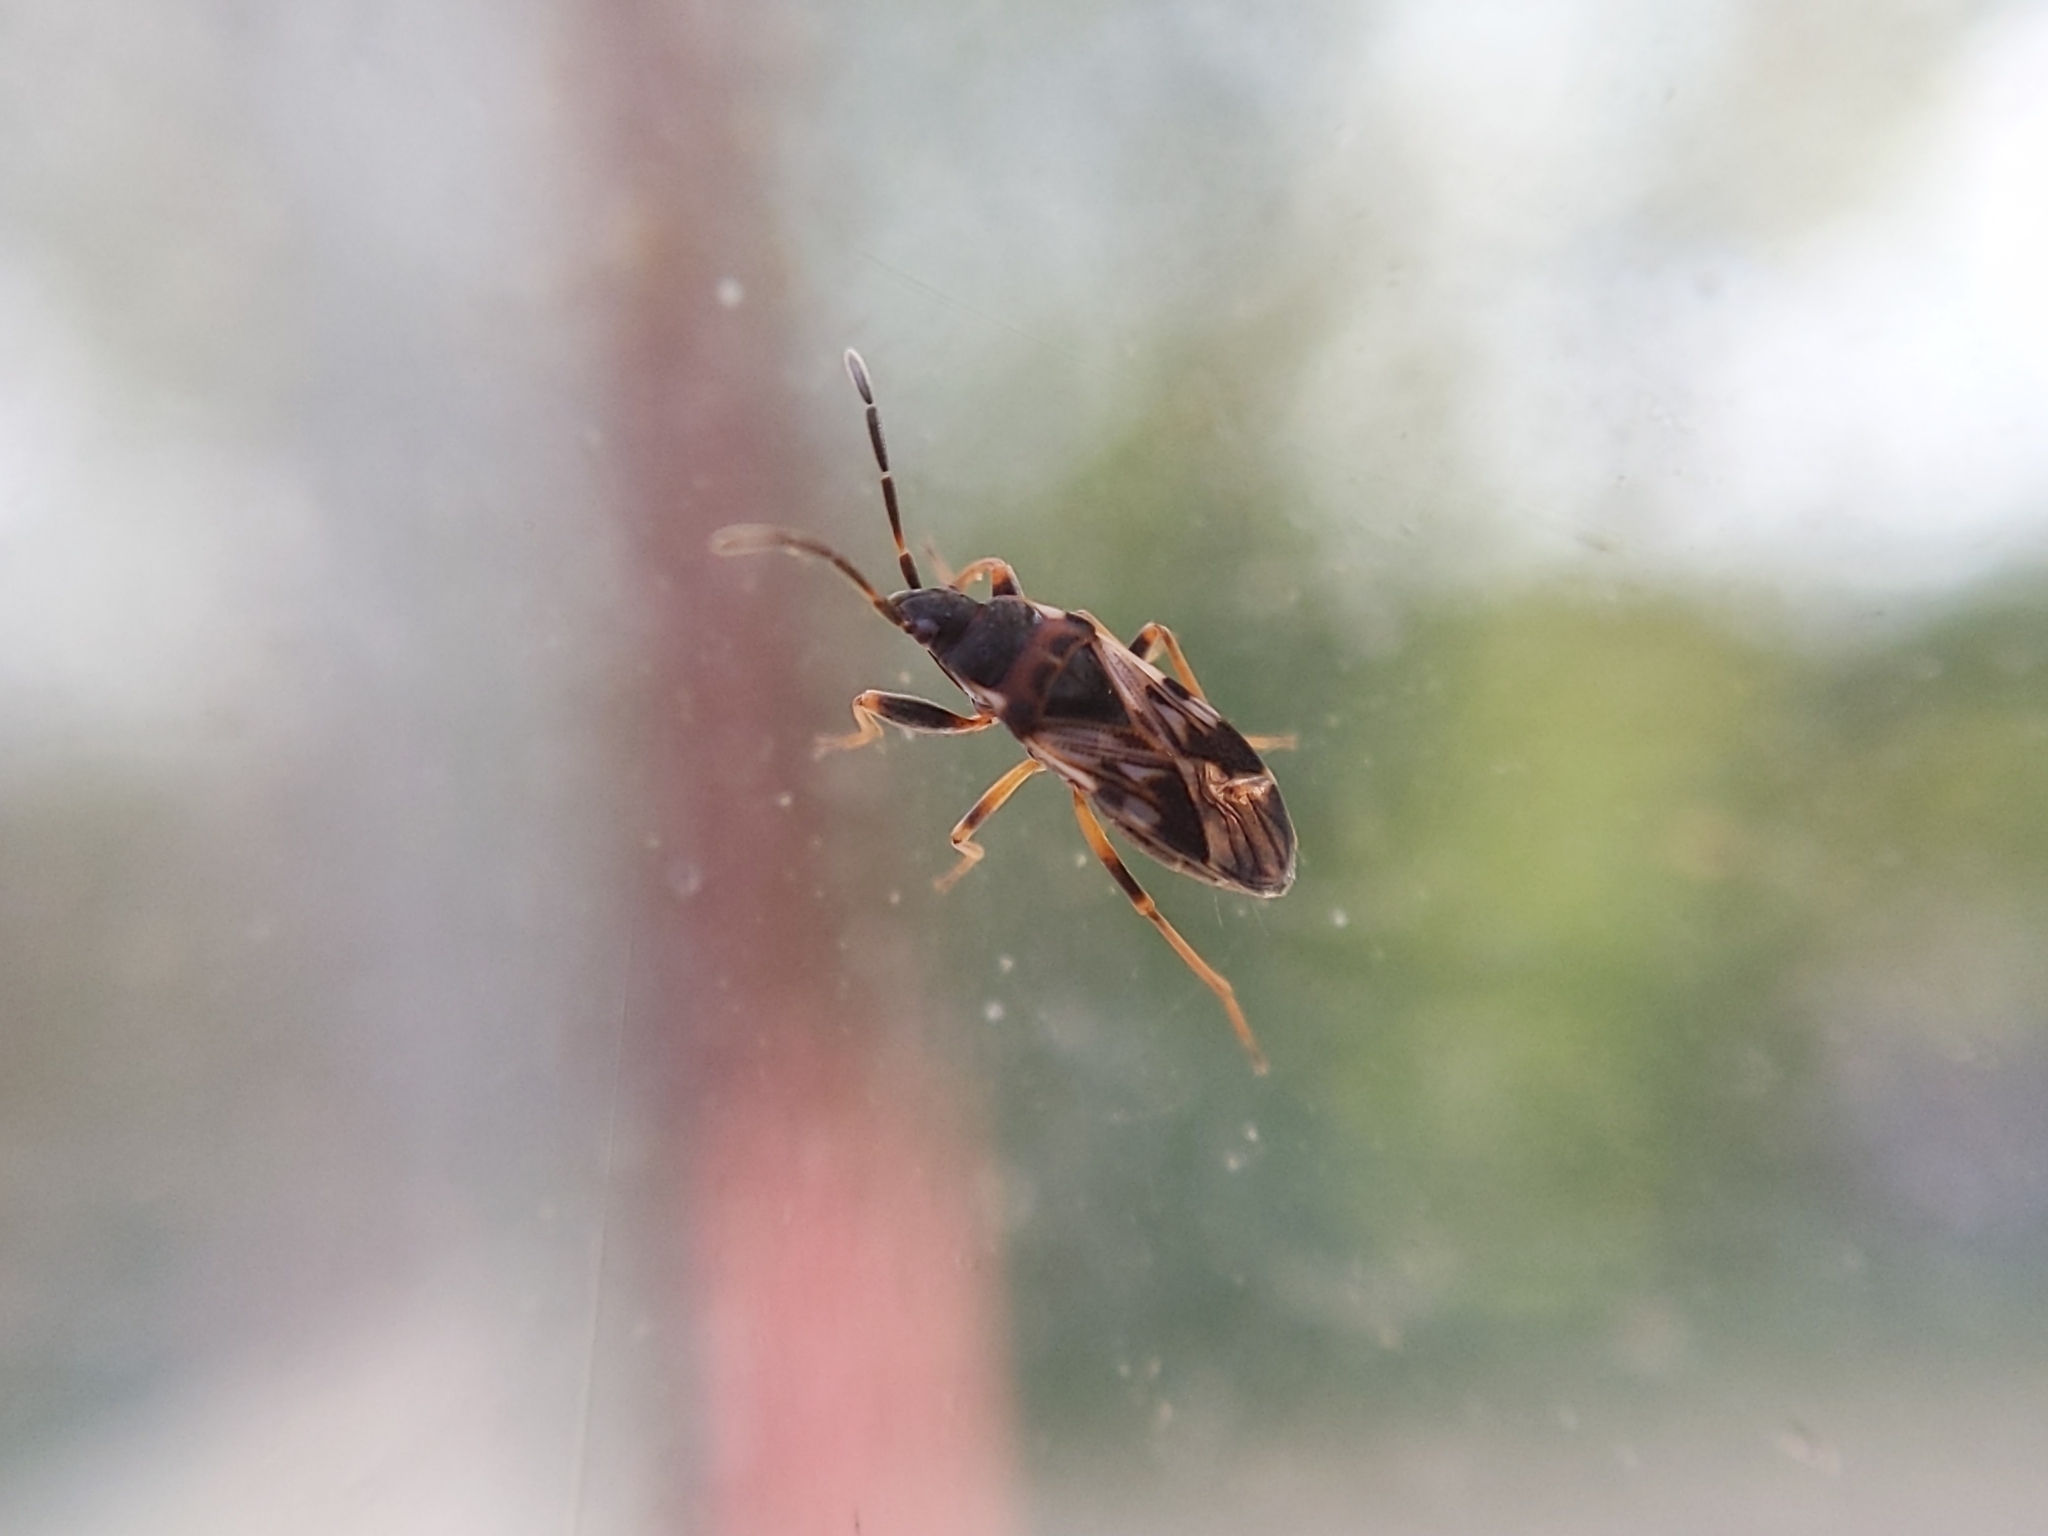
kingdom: Animalia
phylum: Arthropoda
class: Insecta
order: Hemiptera
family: Rhyparochromidae
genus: Scolopostethus
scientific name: Scolopostethus decoratus
